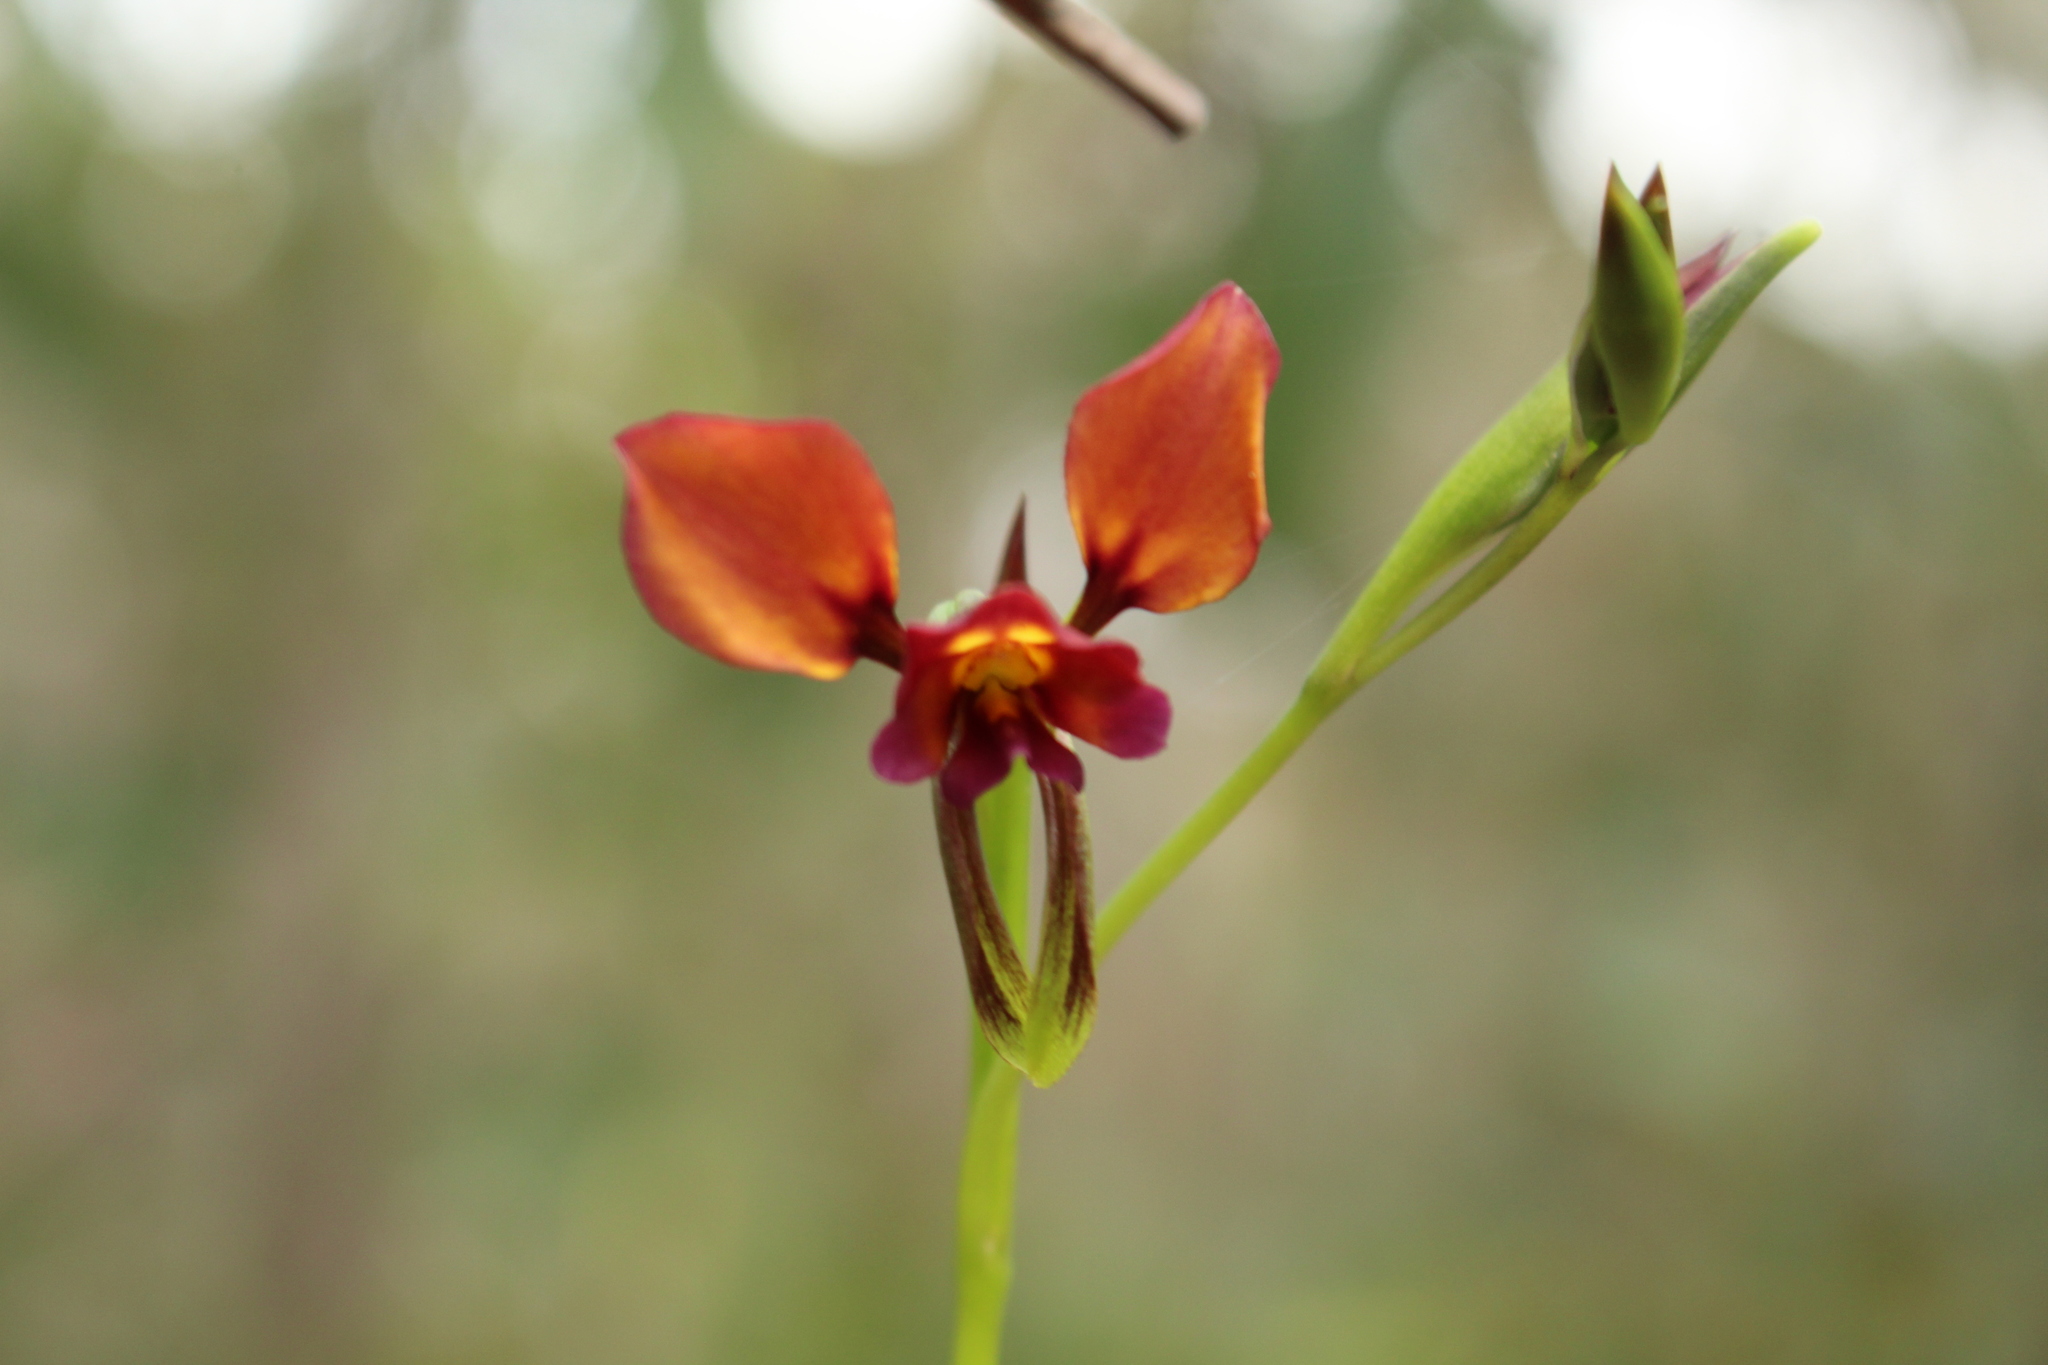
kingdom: Plantae
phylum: Tracheophyta
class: Liliopsida
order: Asparagales
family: Orchidaceae
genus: Diuris
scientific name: Diuris longifolia
